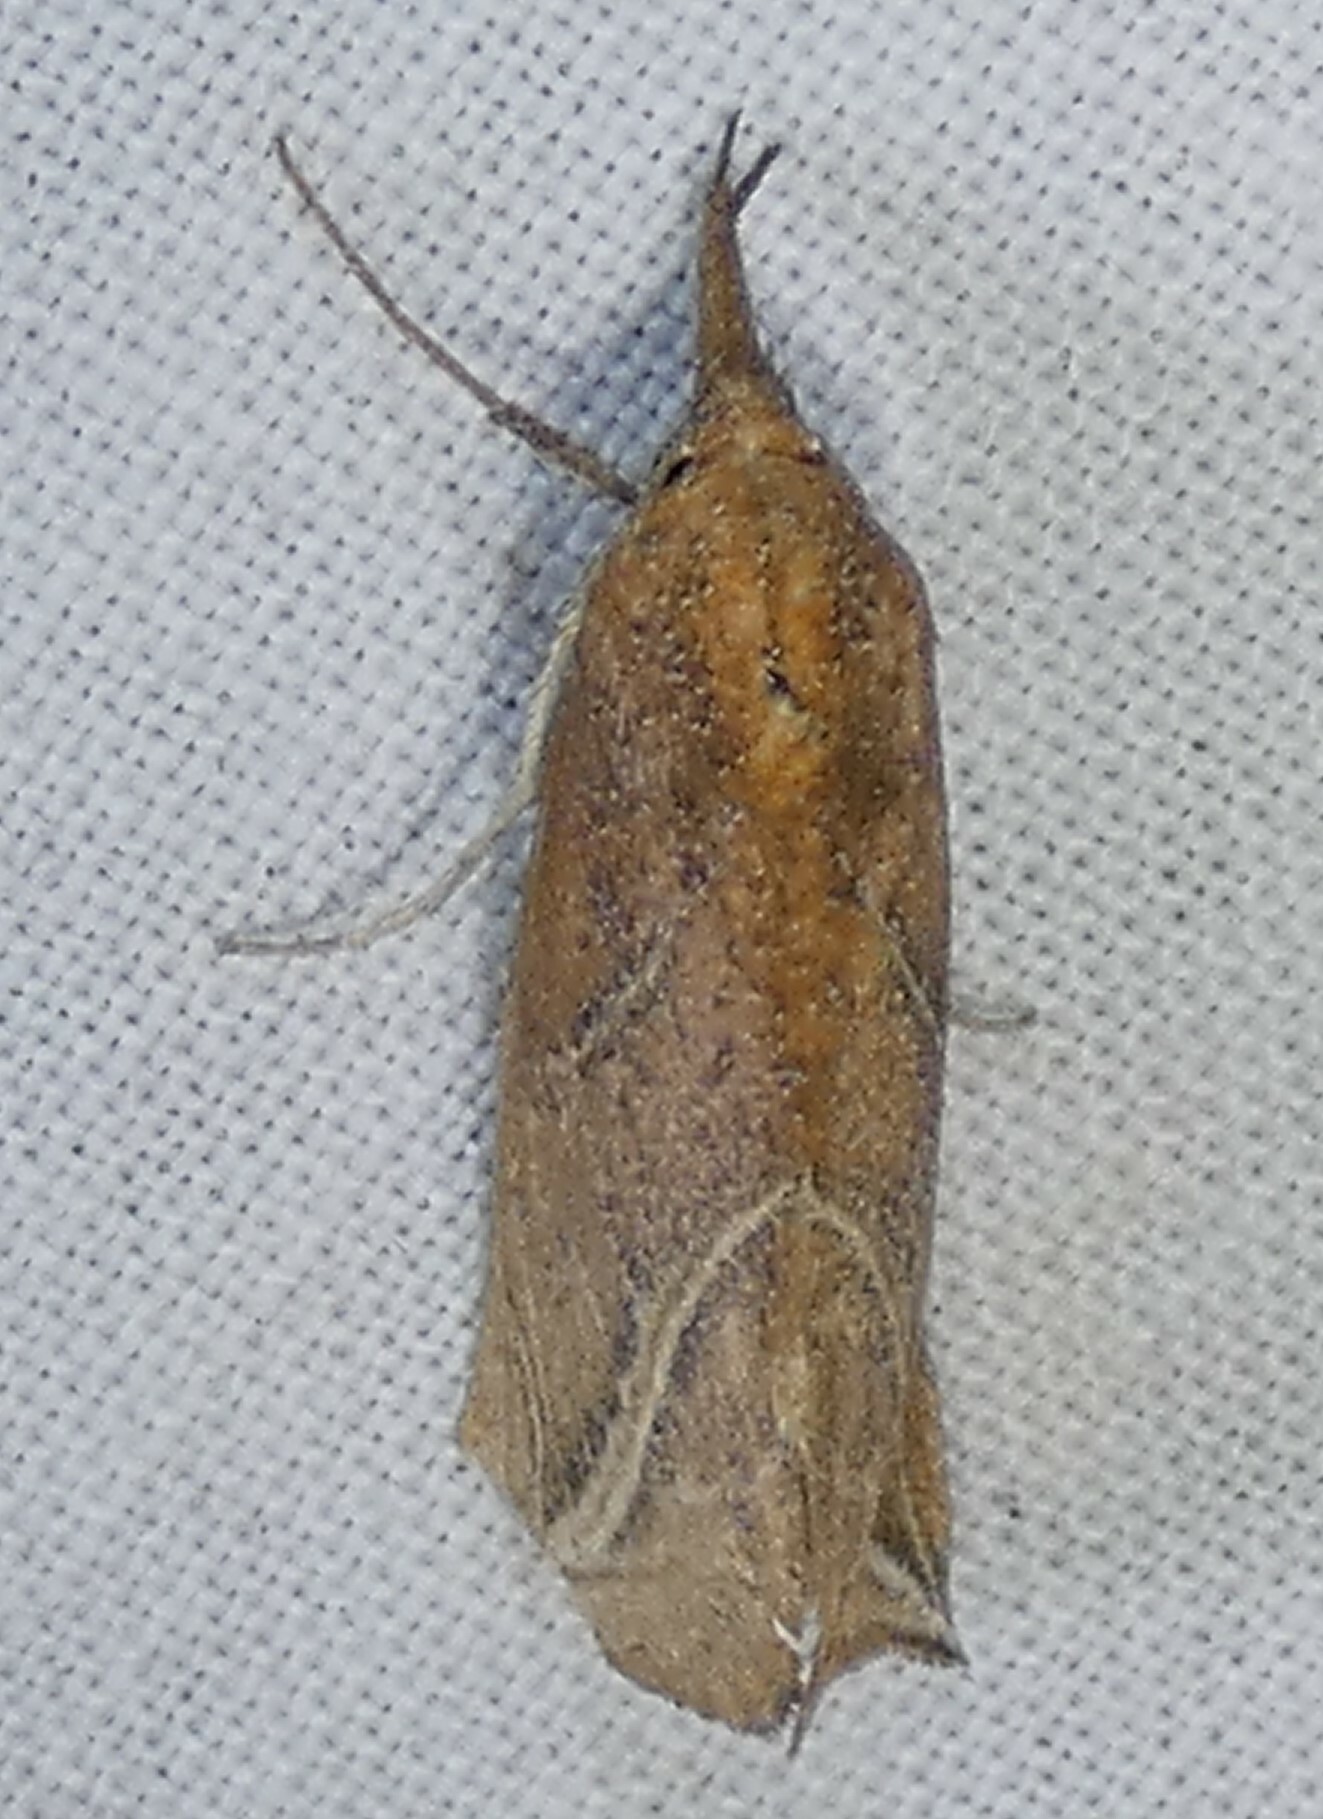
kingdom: Animalia
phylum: Arthropoda
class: Insecta
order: Lepidoptera
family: Erebidae
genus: Phyprosopus
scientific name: Phyprosopus callitrichoides
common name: Curved-lined owlet
